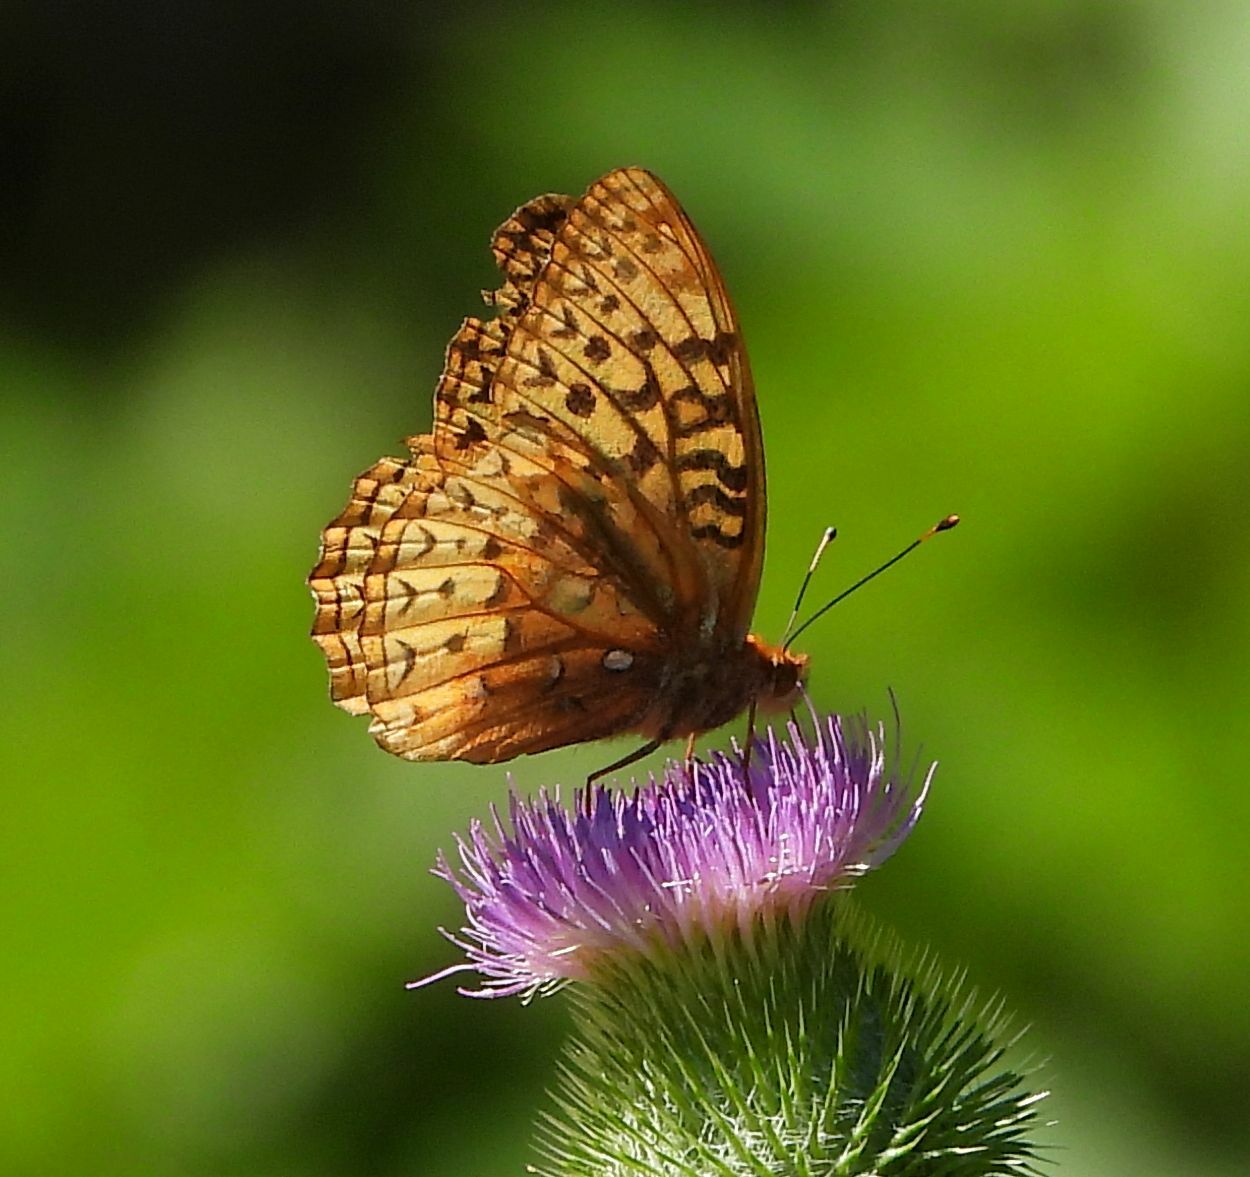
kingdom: Animalia
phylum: Arthropoda
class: Insecta
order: Lepidoptera
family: Nymphalidae
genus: Speyeria
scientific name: Speyeria cybele
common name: Great spangled fritillary
